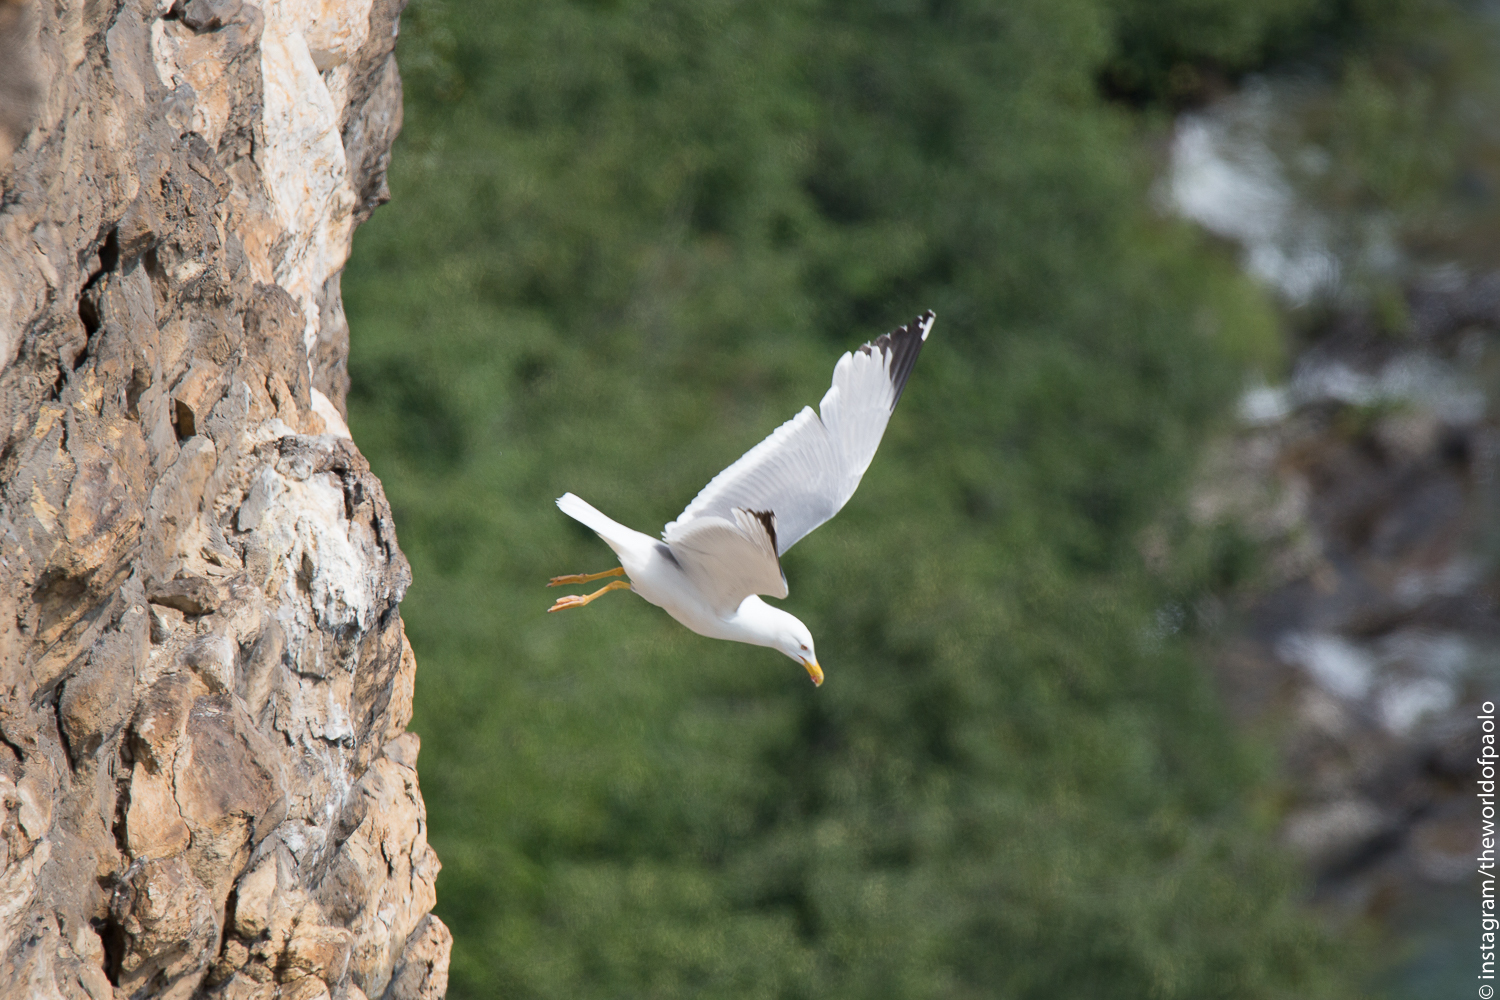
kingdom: Animalia
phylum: Chordata
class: Aves
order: Charadriiformes
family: Laridae
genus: Larus
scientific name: Larus michahellis
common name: Yellow-legged gull
